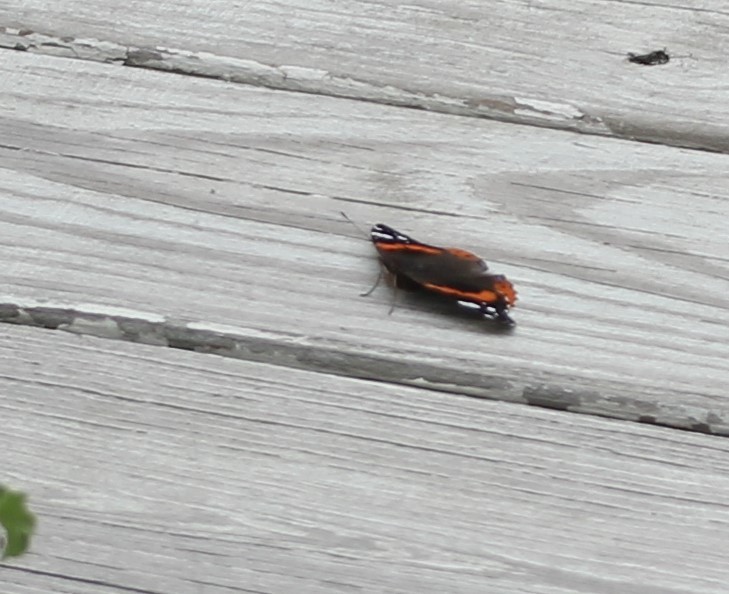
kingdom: Animalia
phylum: Arthropoda
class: Insecta
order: Lepidoptera
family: Nymphalidae
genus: Vanessa
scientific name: Vanessa atalanta
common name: Red admiral
